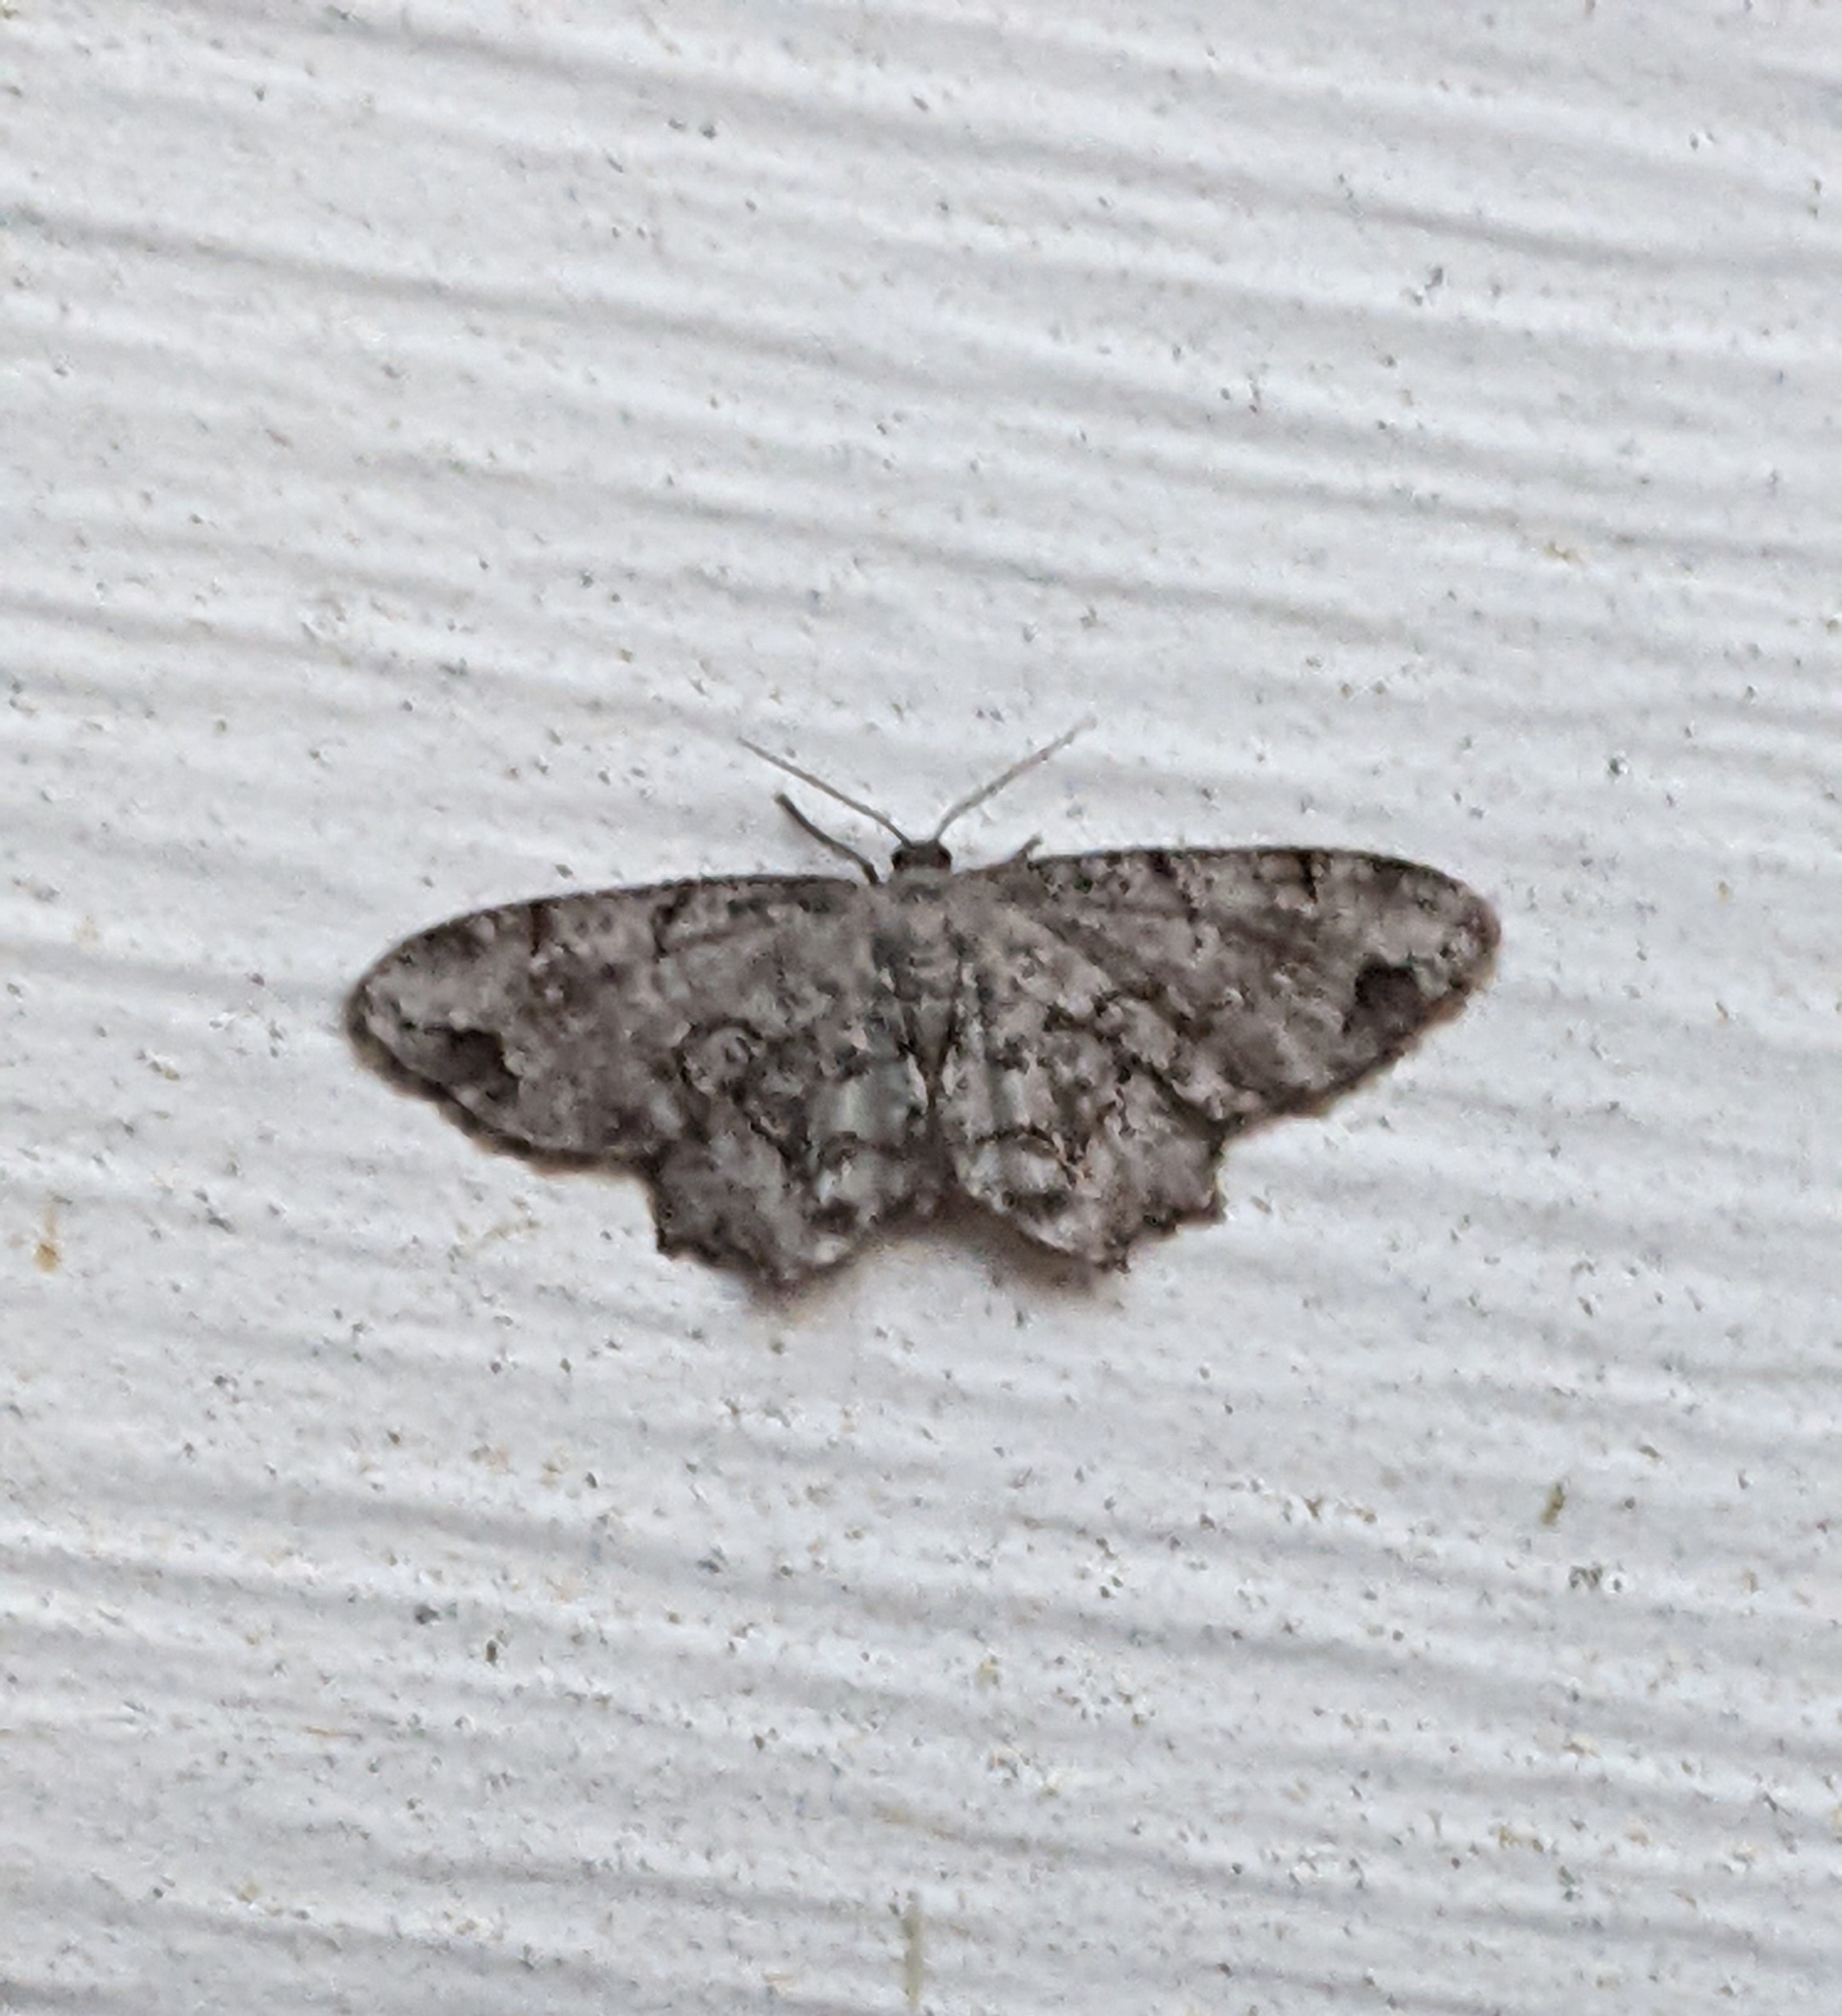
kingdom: Animalia
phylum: Arthropoda
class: Insecta
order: Lepidoptera
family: Uraniidae
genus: Epiplema
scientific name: Epiplema Callizzia amorata
